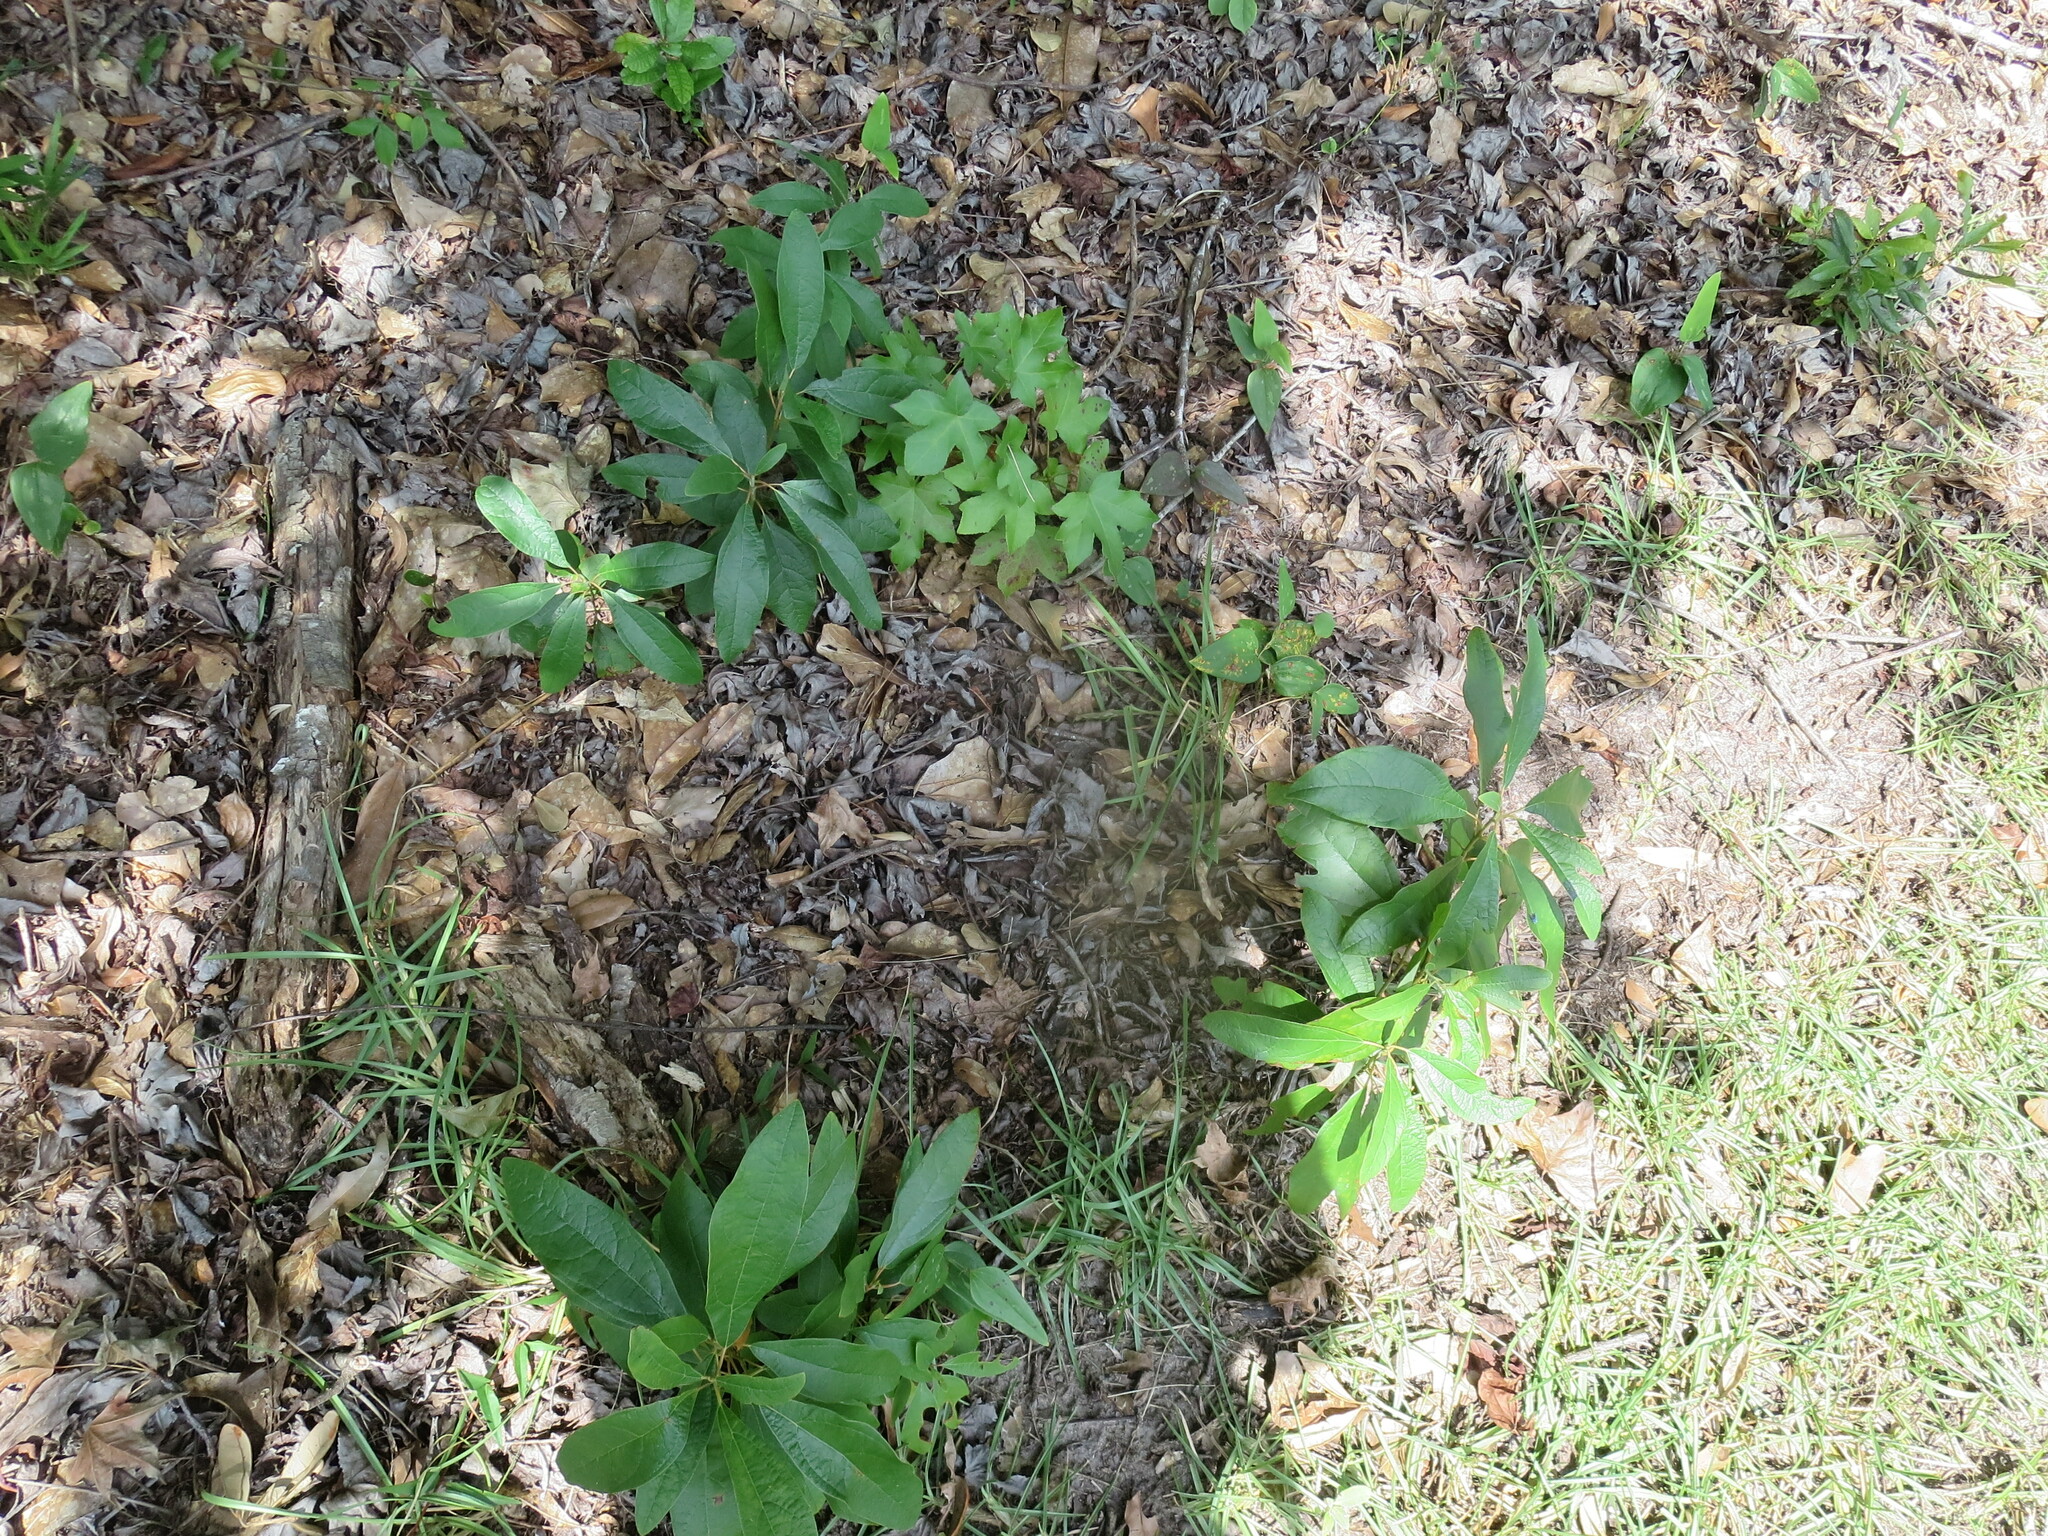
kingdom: Plantae
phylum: Tracheophyta
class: Magnoliopsida
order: Laurales
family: Lauraceae
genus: Sassafras
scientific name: Sassafras albidum
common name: Sassafras
